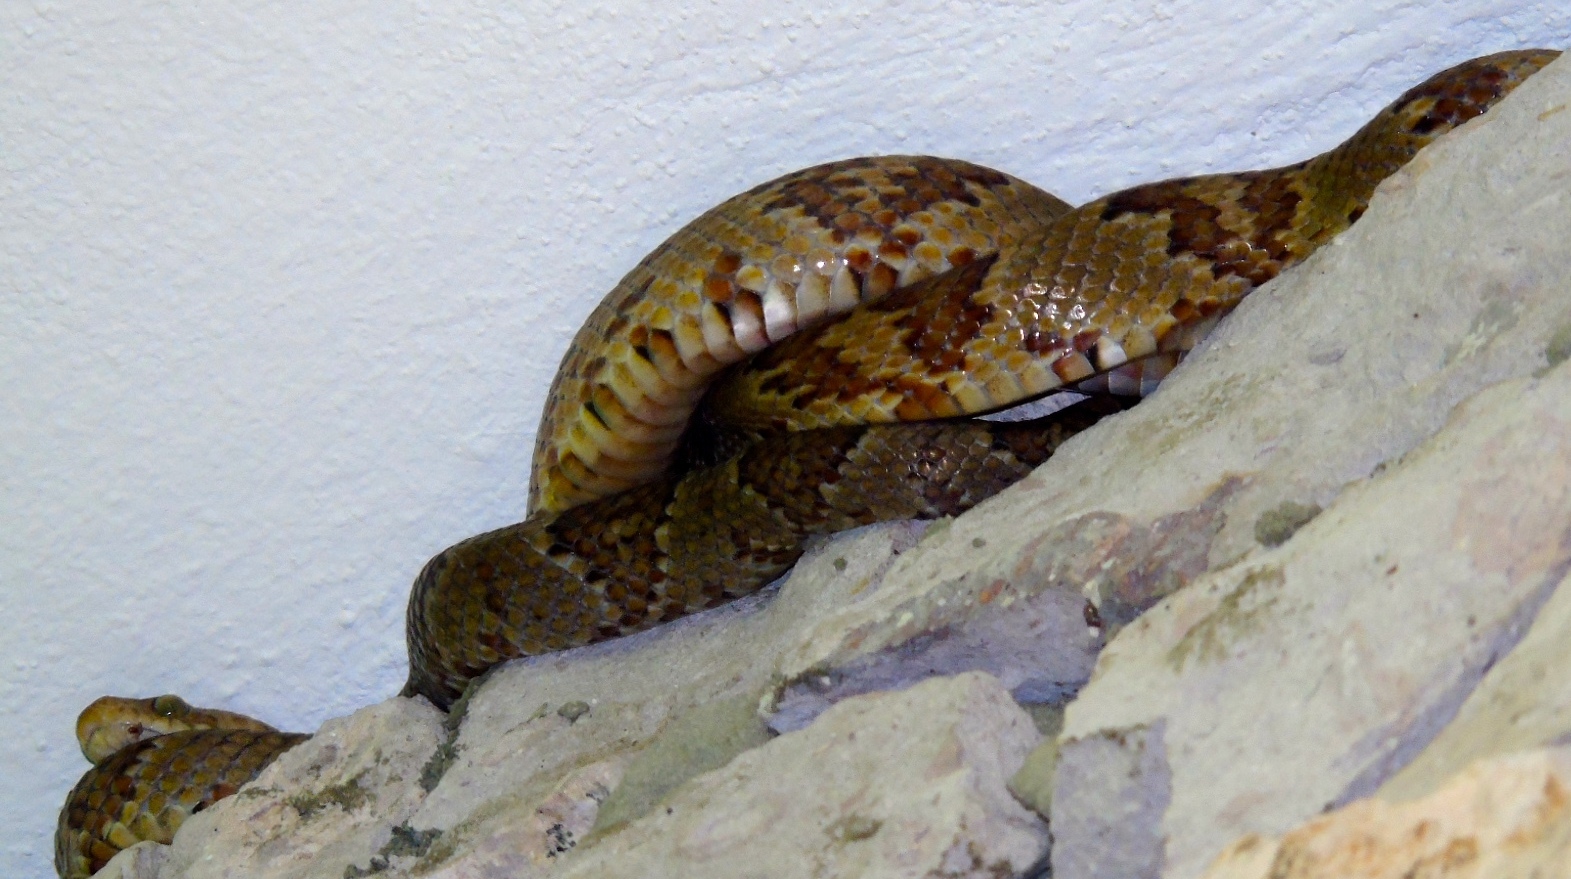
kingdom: Animalia
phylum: Chordata
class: Squamata
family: Colubridae
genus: Trimorphodon
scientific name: Trimorphodon paucimaculatus
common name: Sinaloan lyresnake
